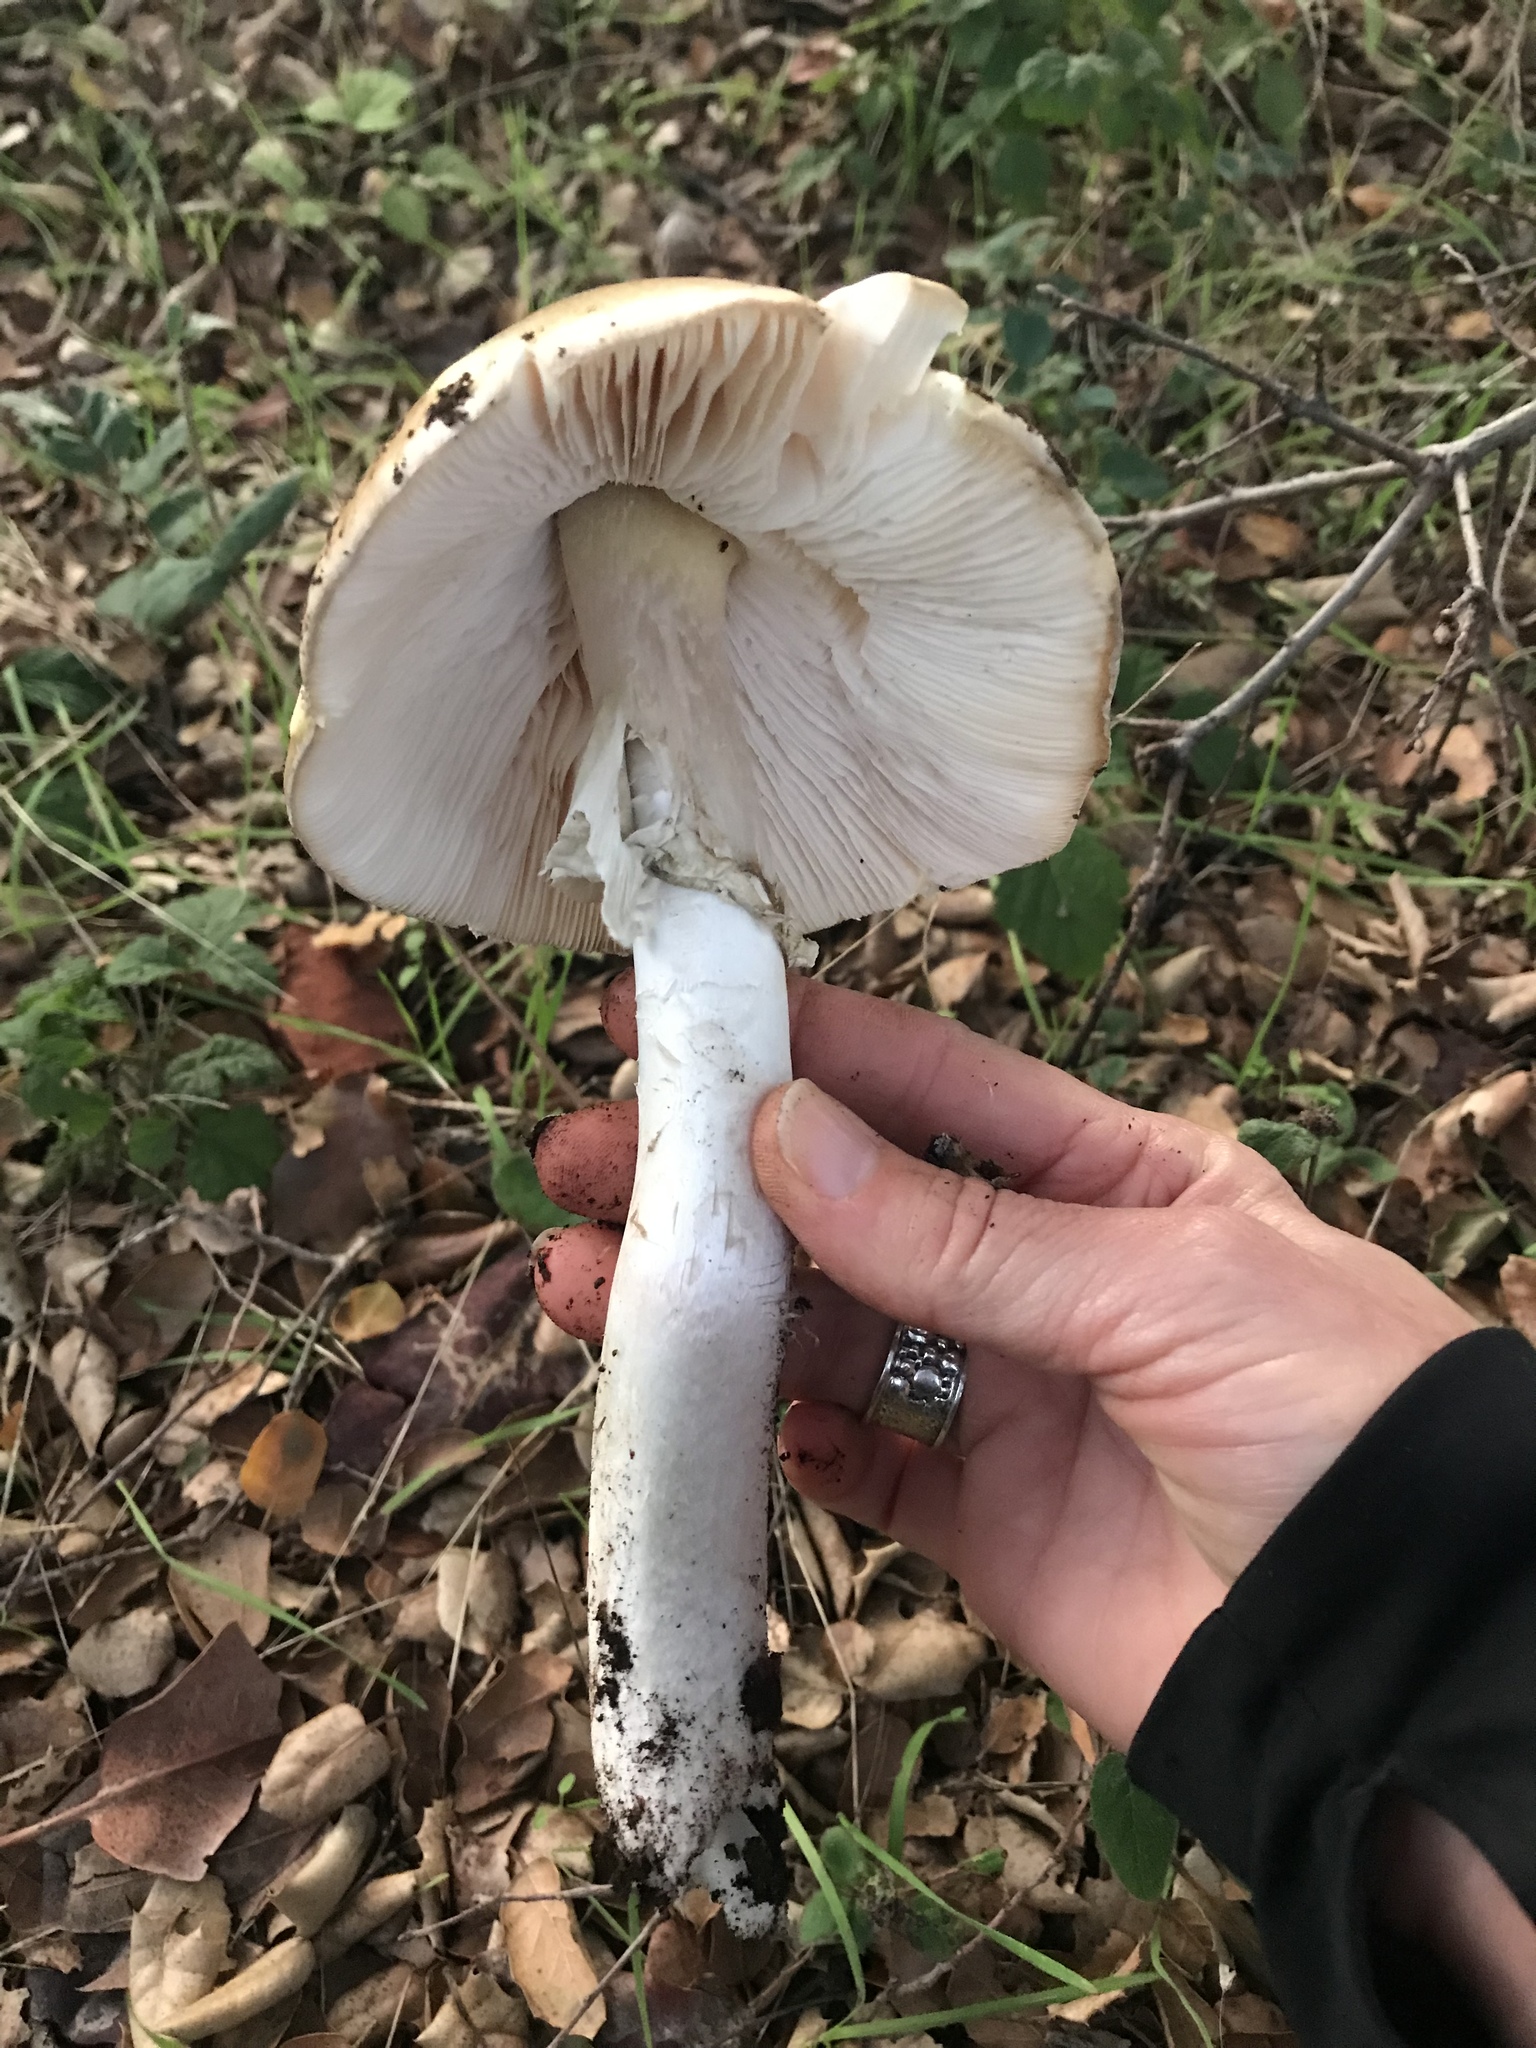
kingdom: Fungi
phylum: Basidiomycota
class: Agaricomycetes
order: Agaricales
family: Amanitaceae
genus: Amanita
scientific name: Amanita phalloides
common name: Death cap
